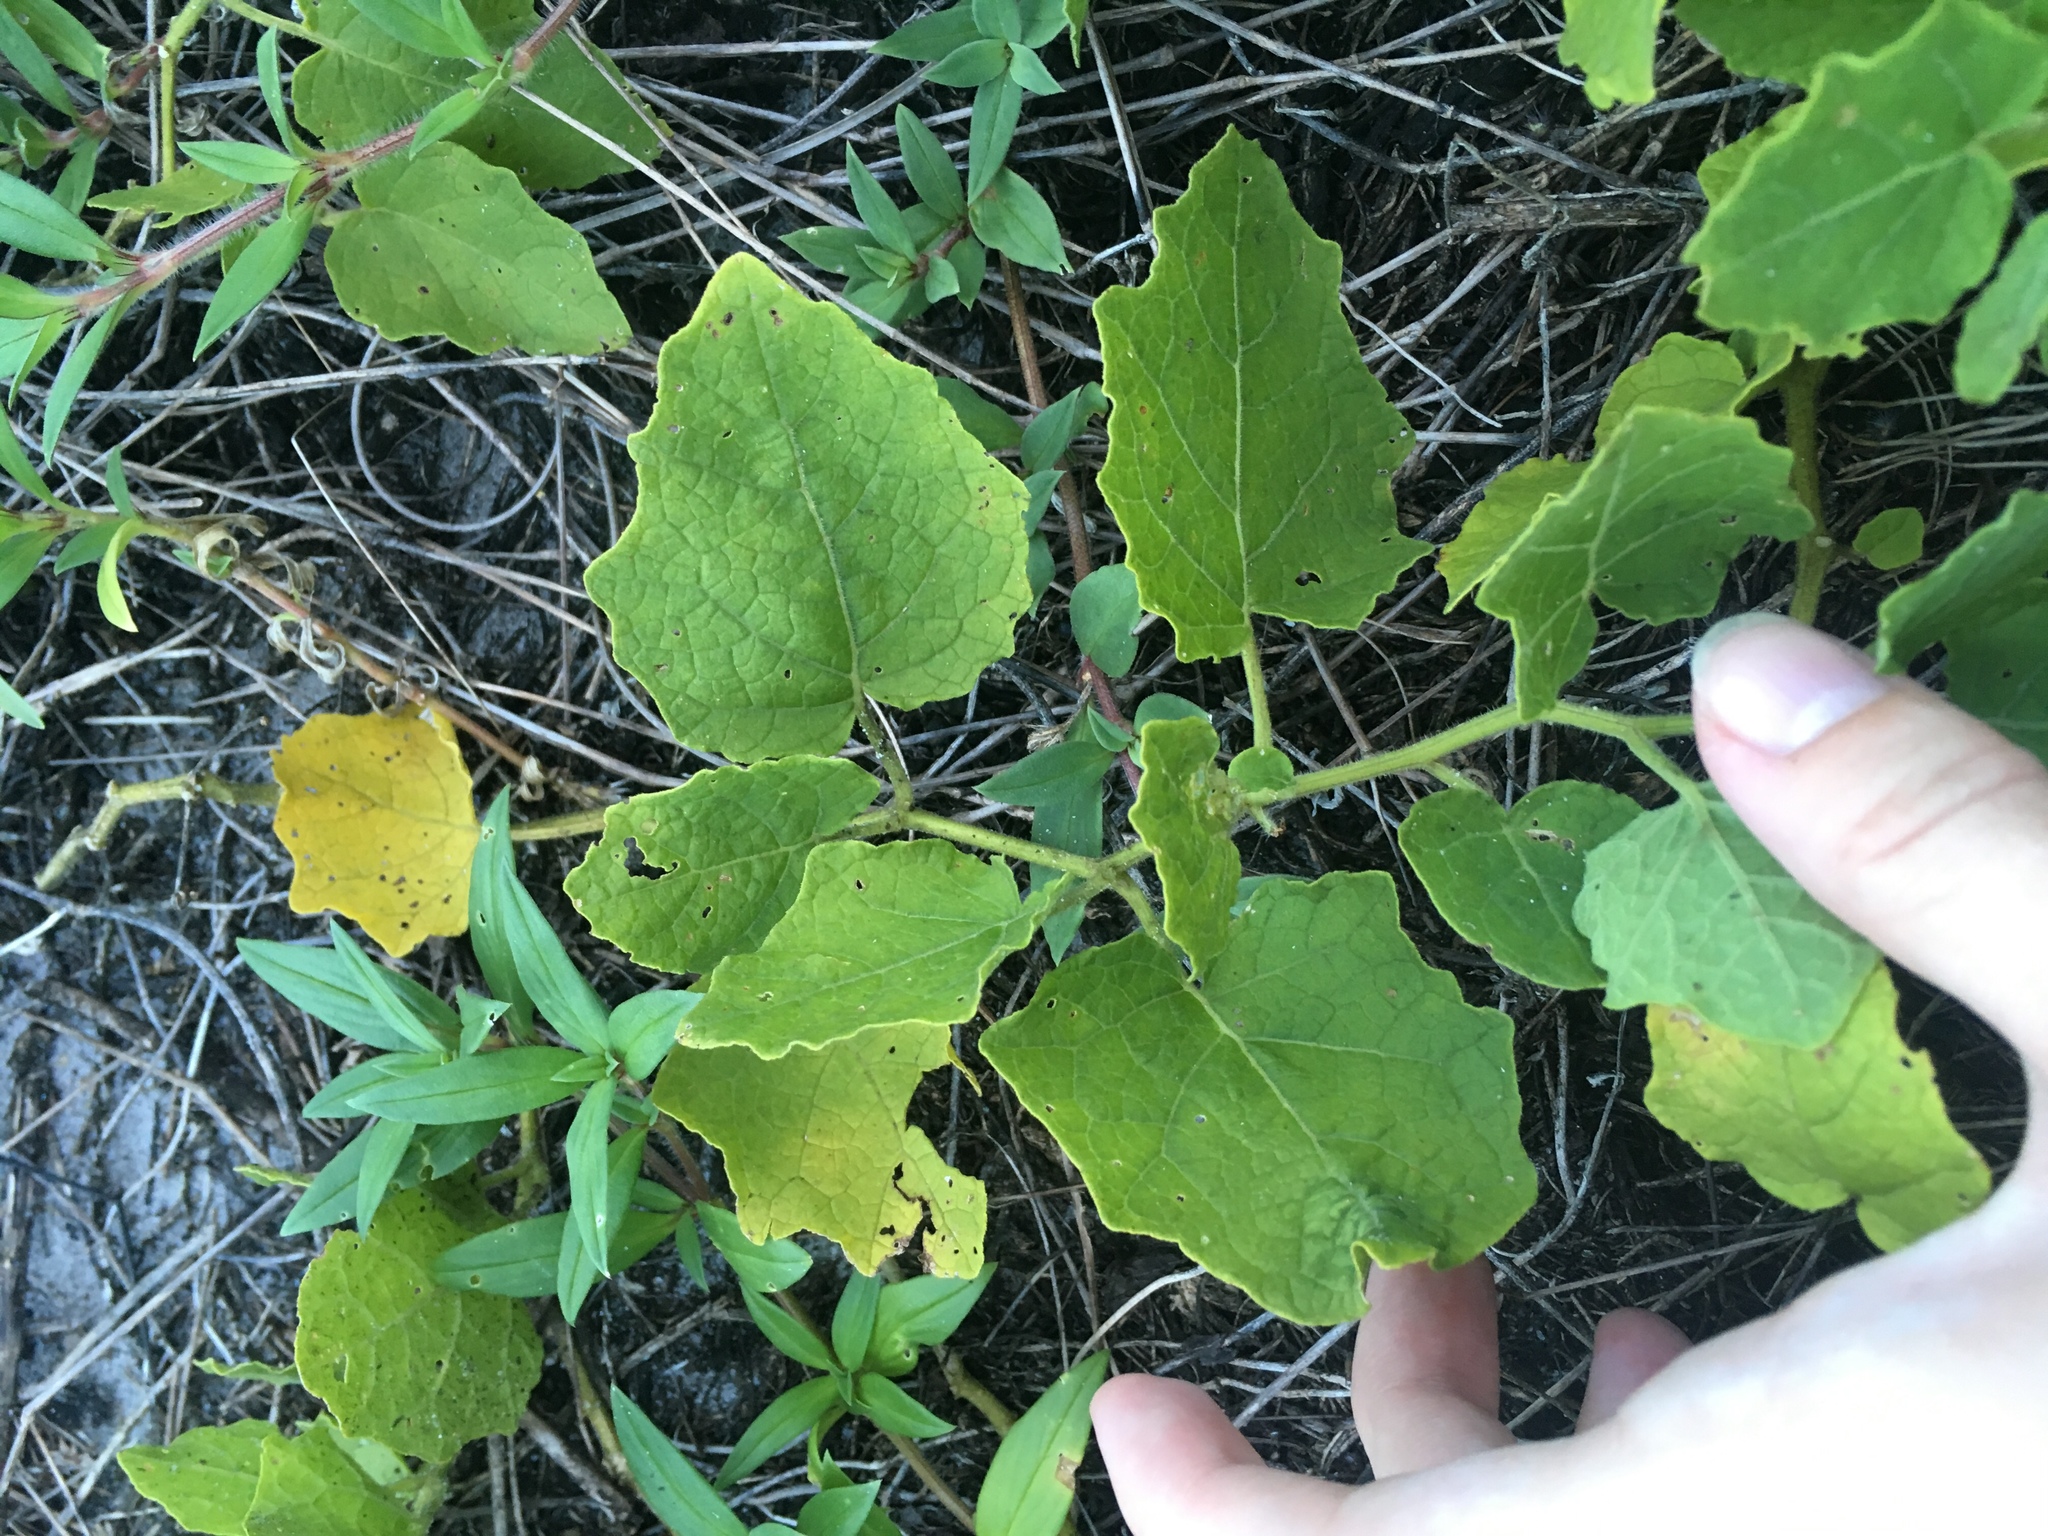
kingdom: Plantae
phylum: Tracheophyta
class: Magnoliopsida
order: Solanales
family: Solanaceae
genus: Physalis
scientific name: Physalis arenicola
